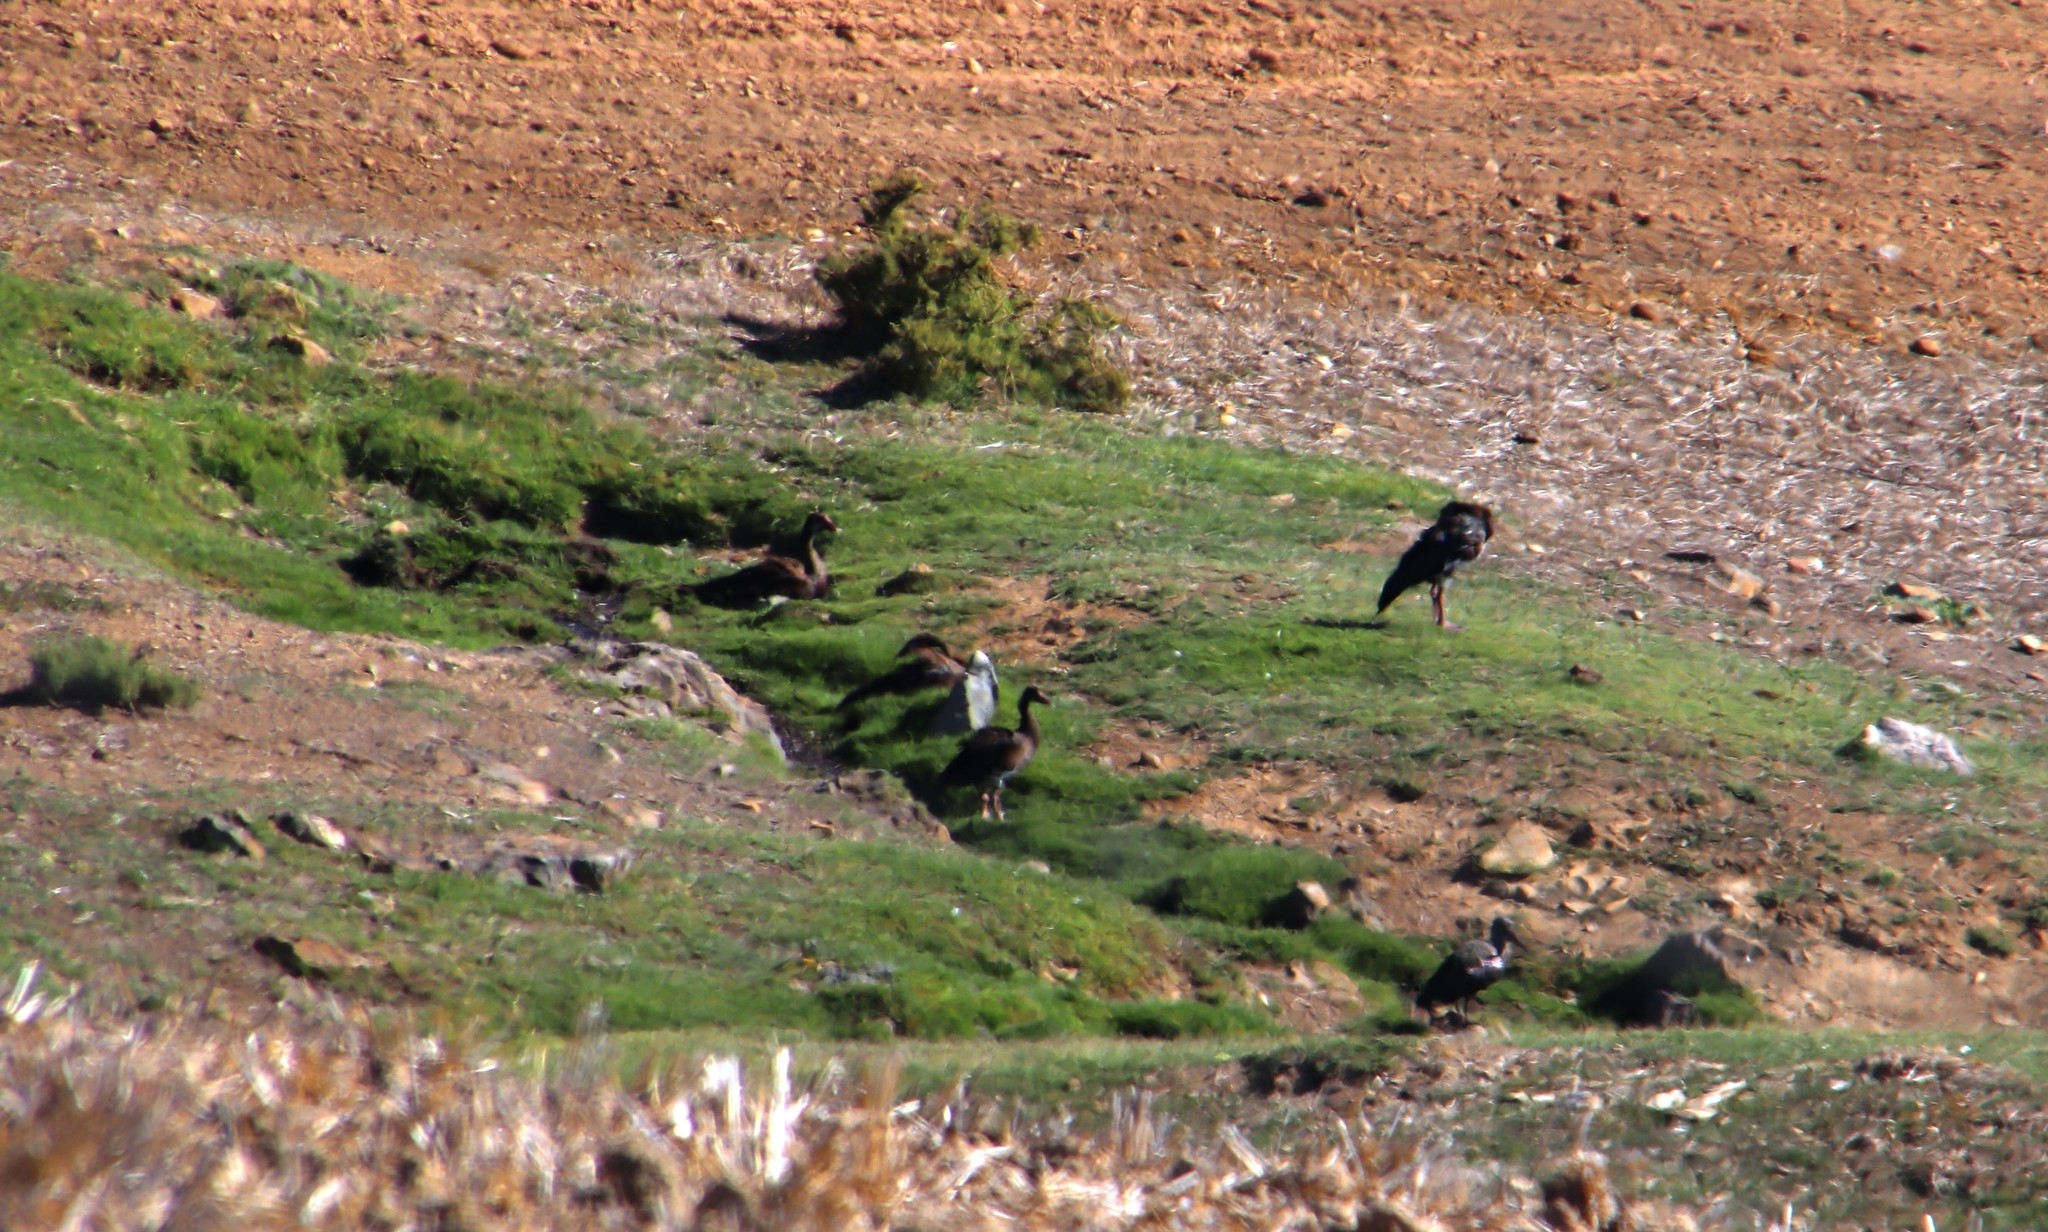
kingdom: Animalia
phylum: Chordata
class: Aves
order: Anseriformes
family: Anatidae
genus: Plectropterus
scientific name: Plectropterus gambensis
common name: Spur-winged goose
